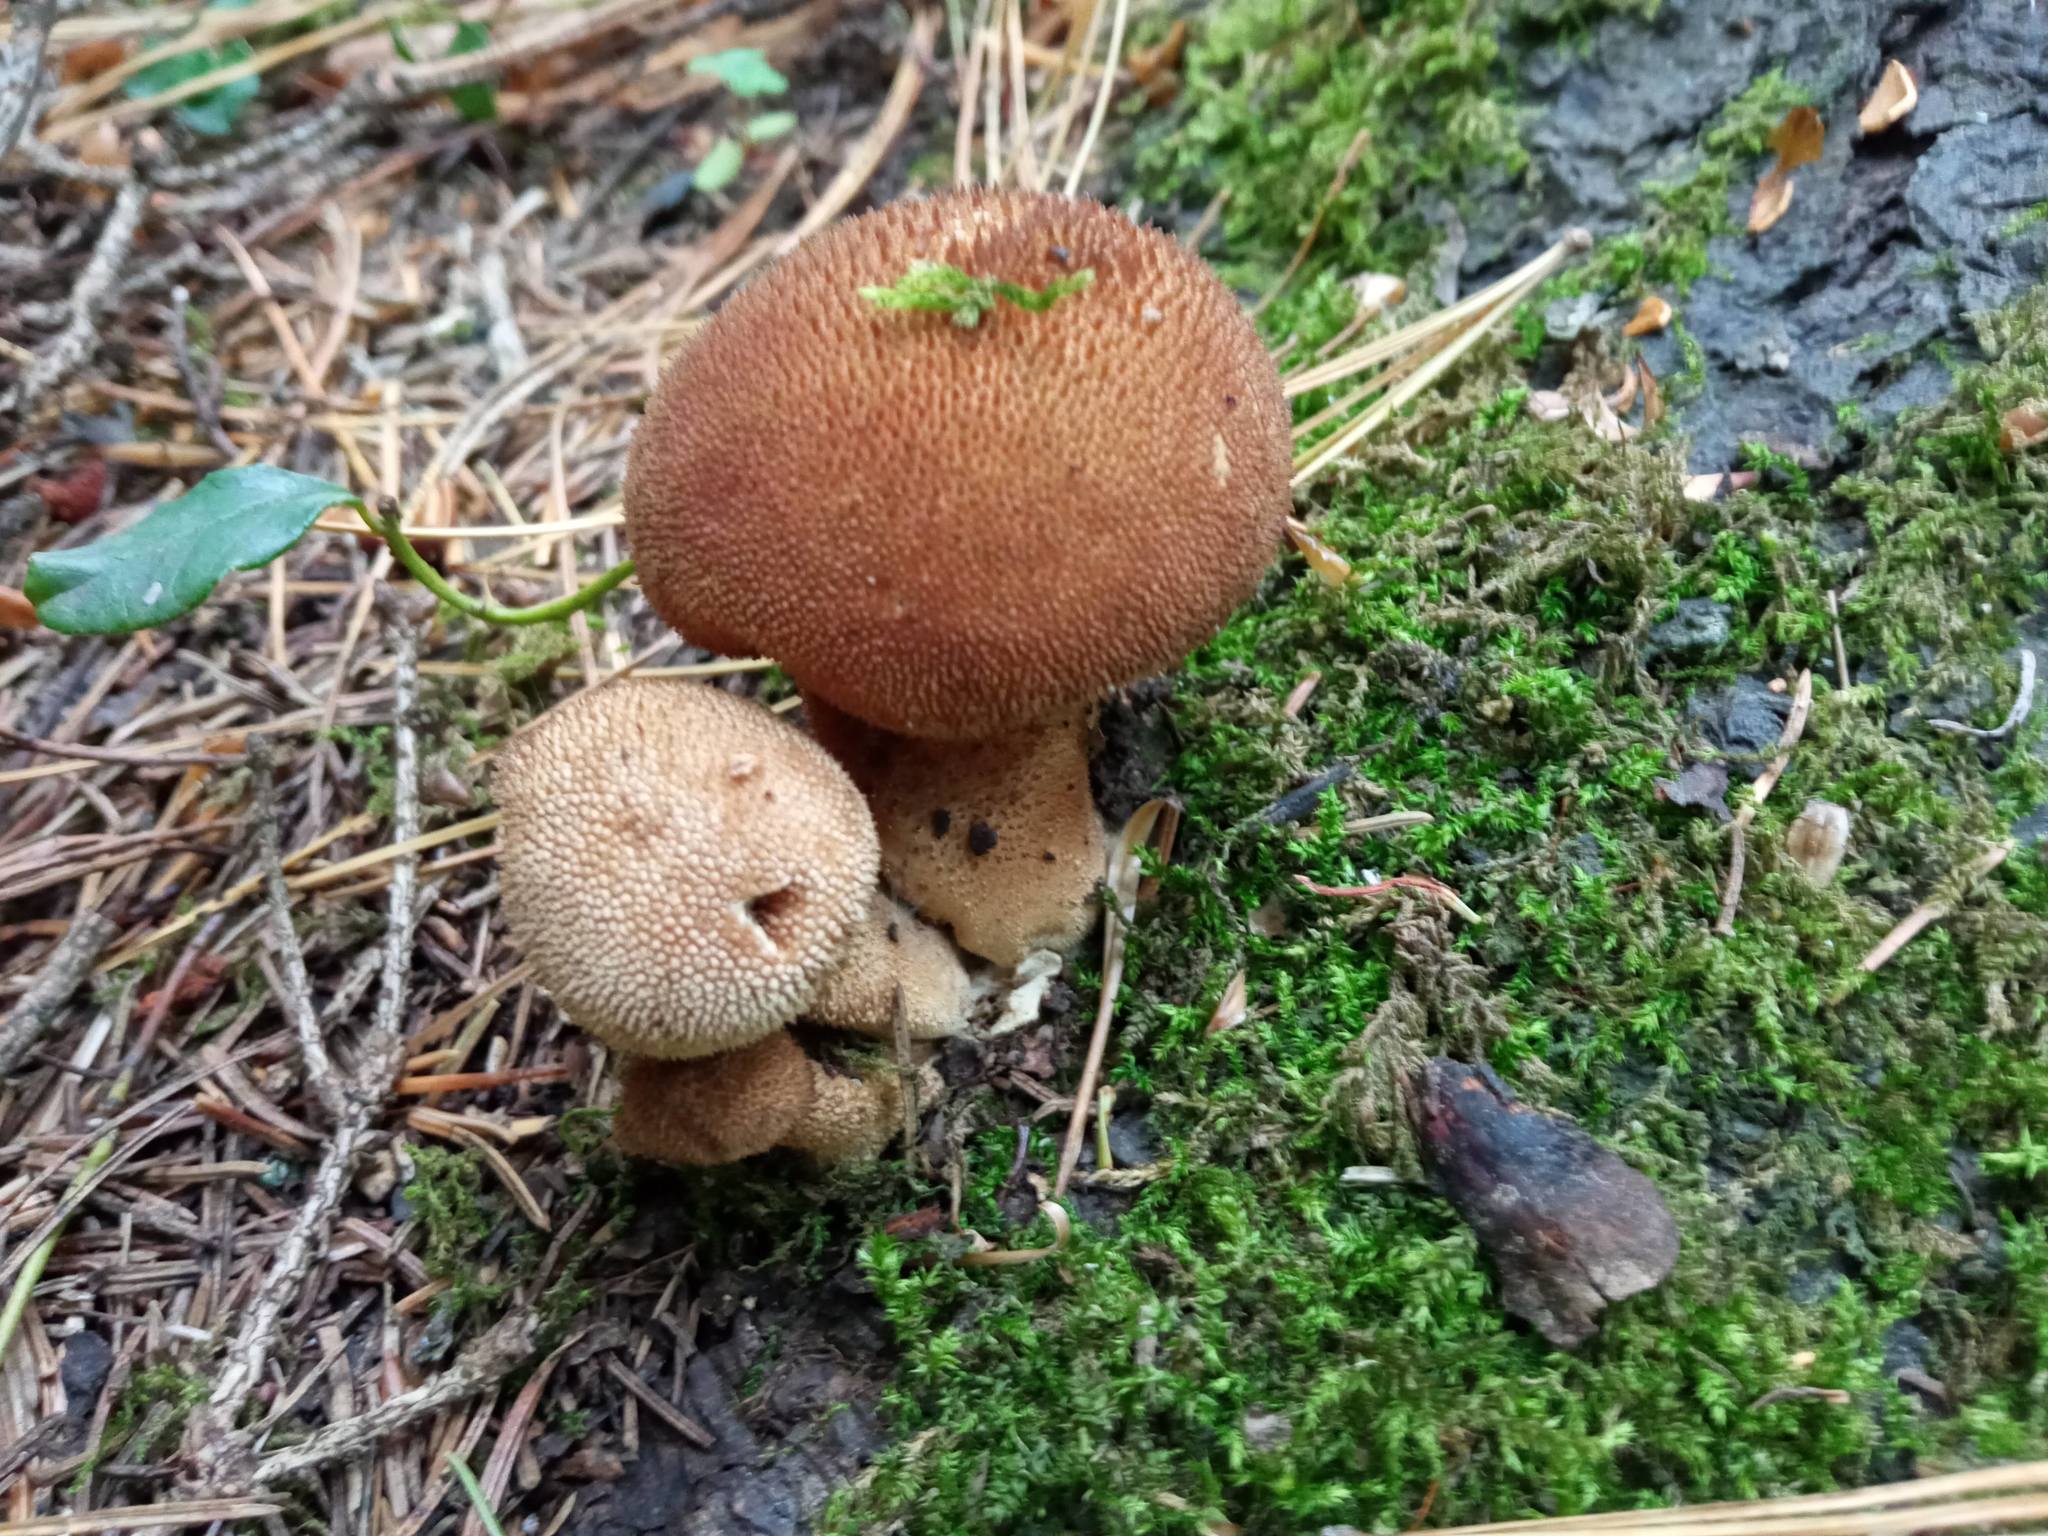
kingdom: Fungi
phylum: Basidiomycota
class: Agaricomycetes
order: Agaricales
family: Lycoperdaceae
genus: Lycoperdon
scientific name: Lycoperdon perlatum
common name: Common puffball
